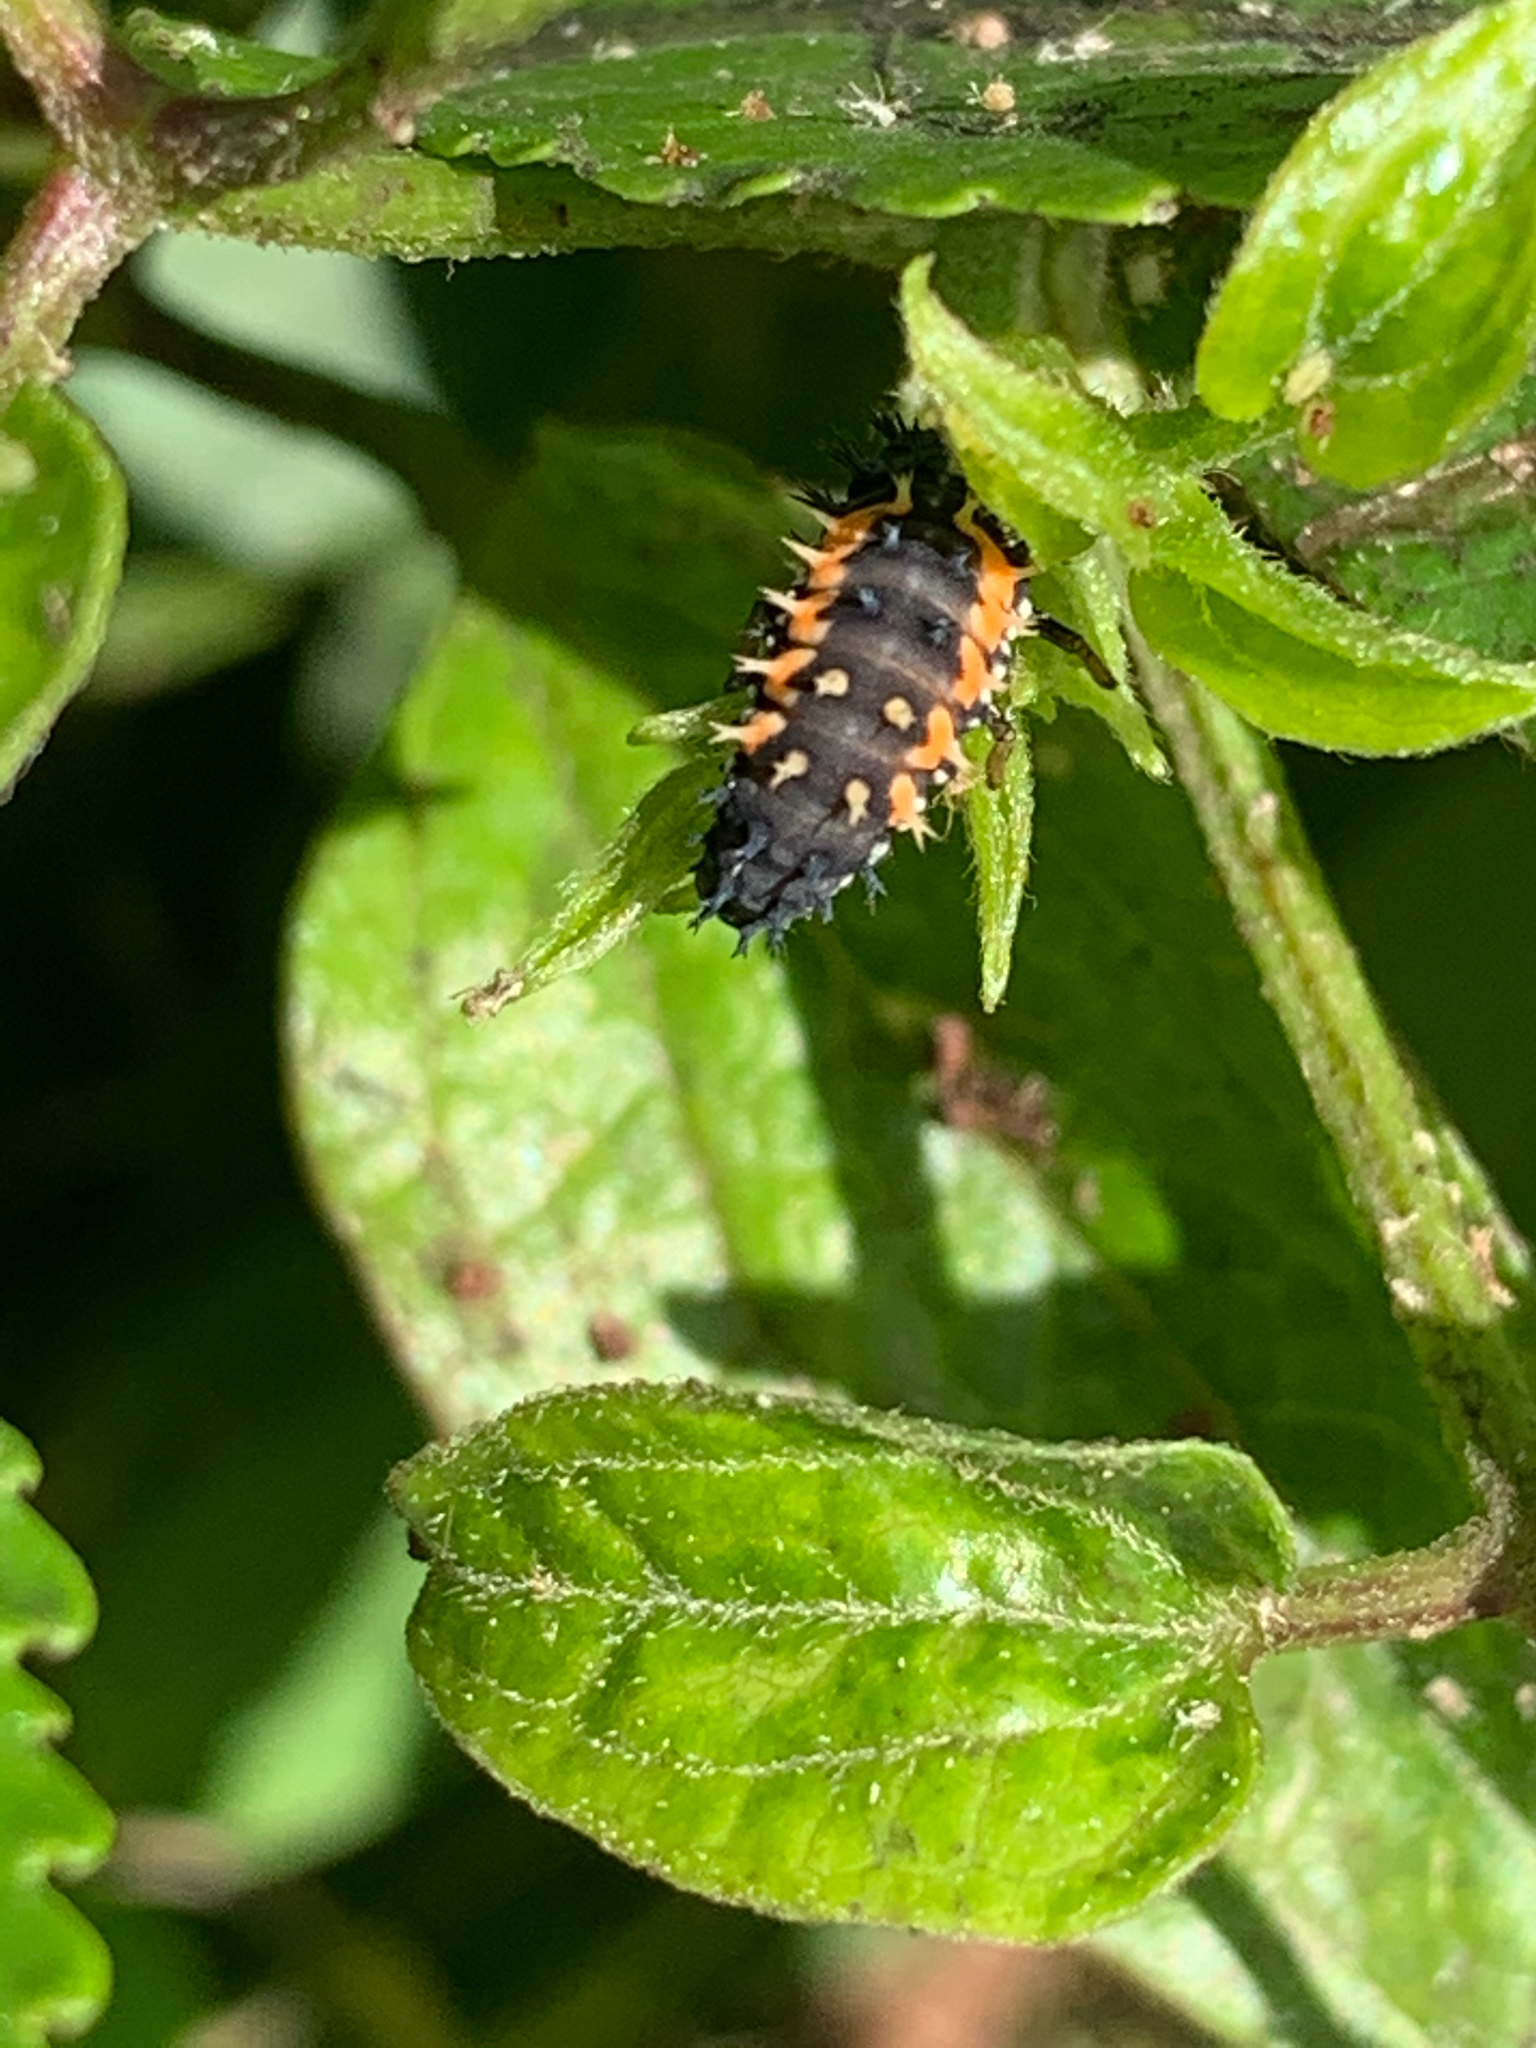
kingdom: Animalia
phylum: Arthropoda
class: Insecta
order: Coleoptera
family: Coccinellidae
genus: Harmonia
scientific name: Harmonia axyridis
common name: Harlequin ladybird
